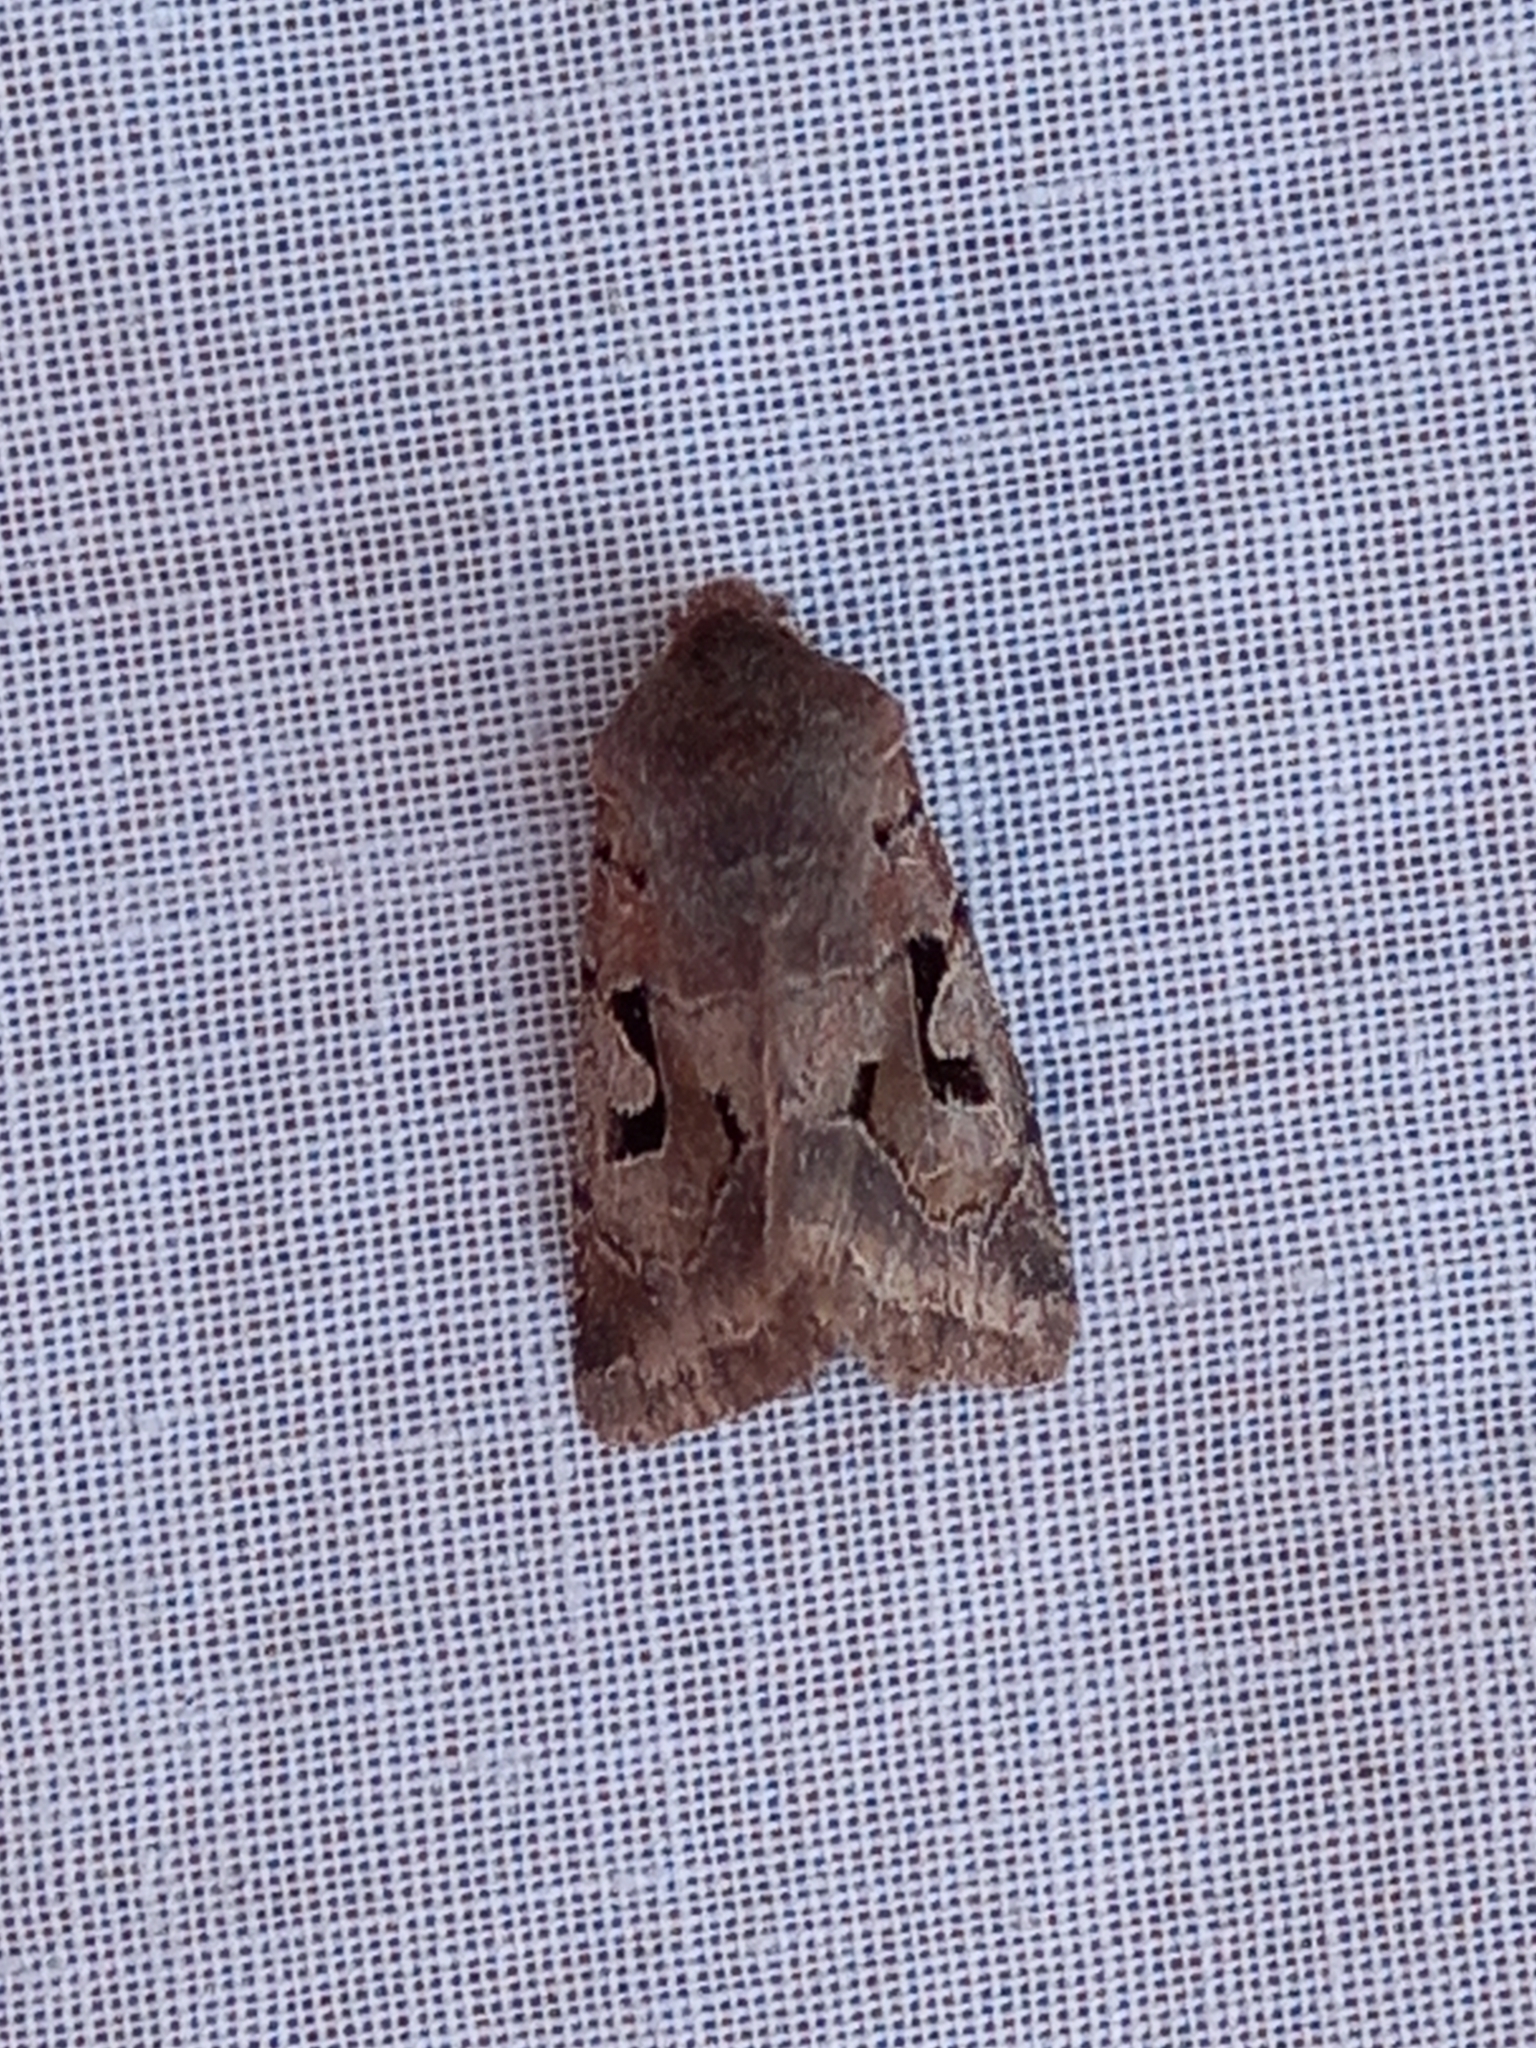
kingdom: Animalia
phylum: Arthropoda
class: Insecta
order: Lepidoptera
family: Noctuidae
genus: Orthosia
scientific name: Orthosia gothica
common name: Hebrew character
